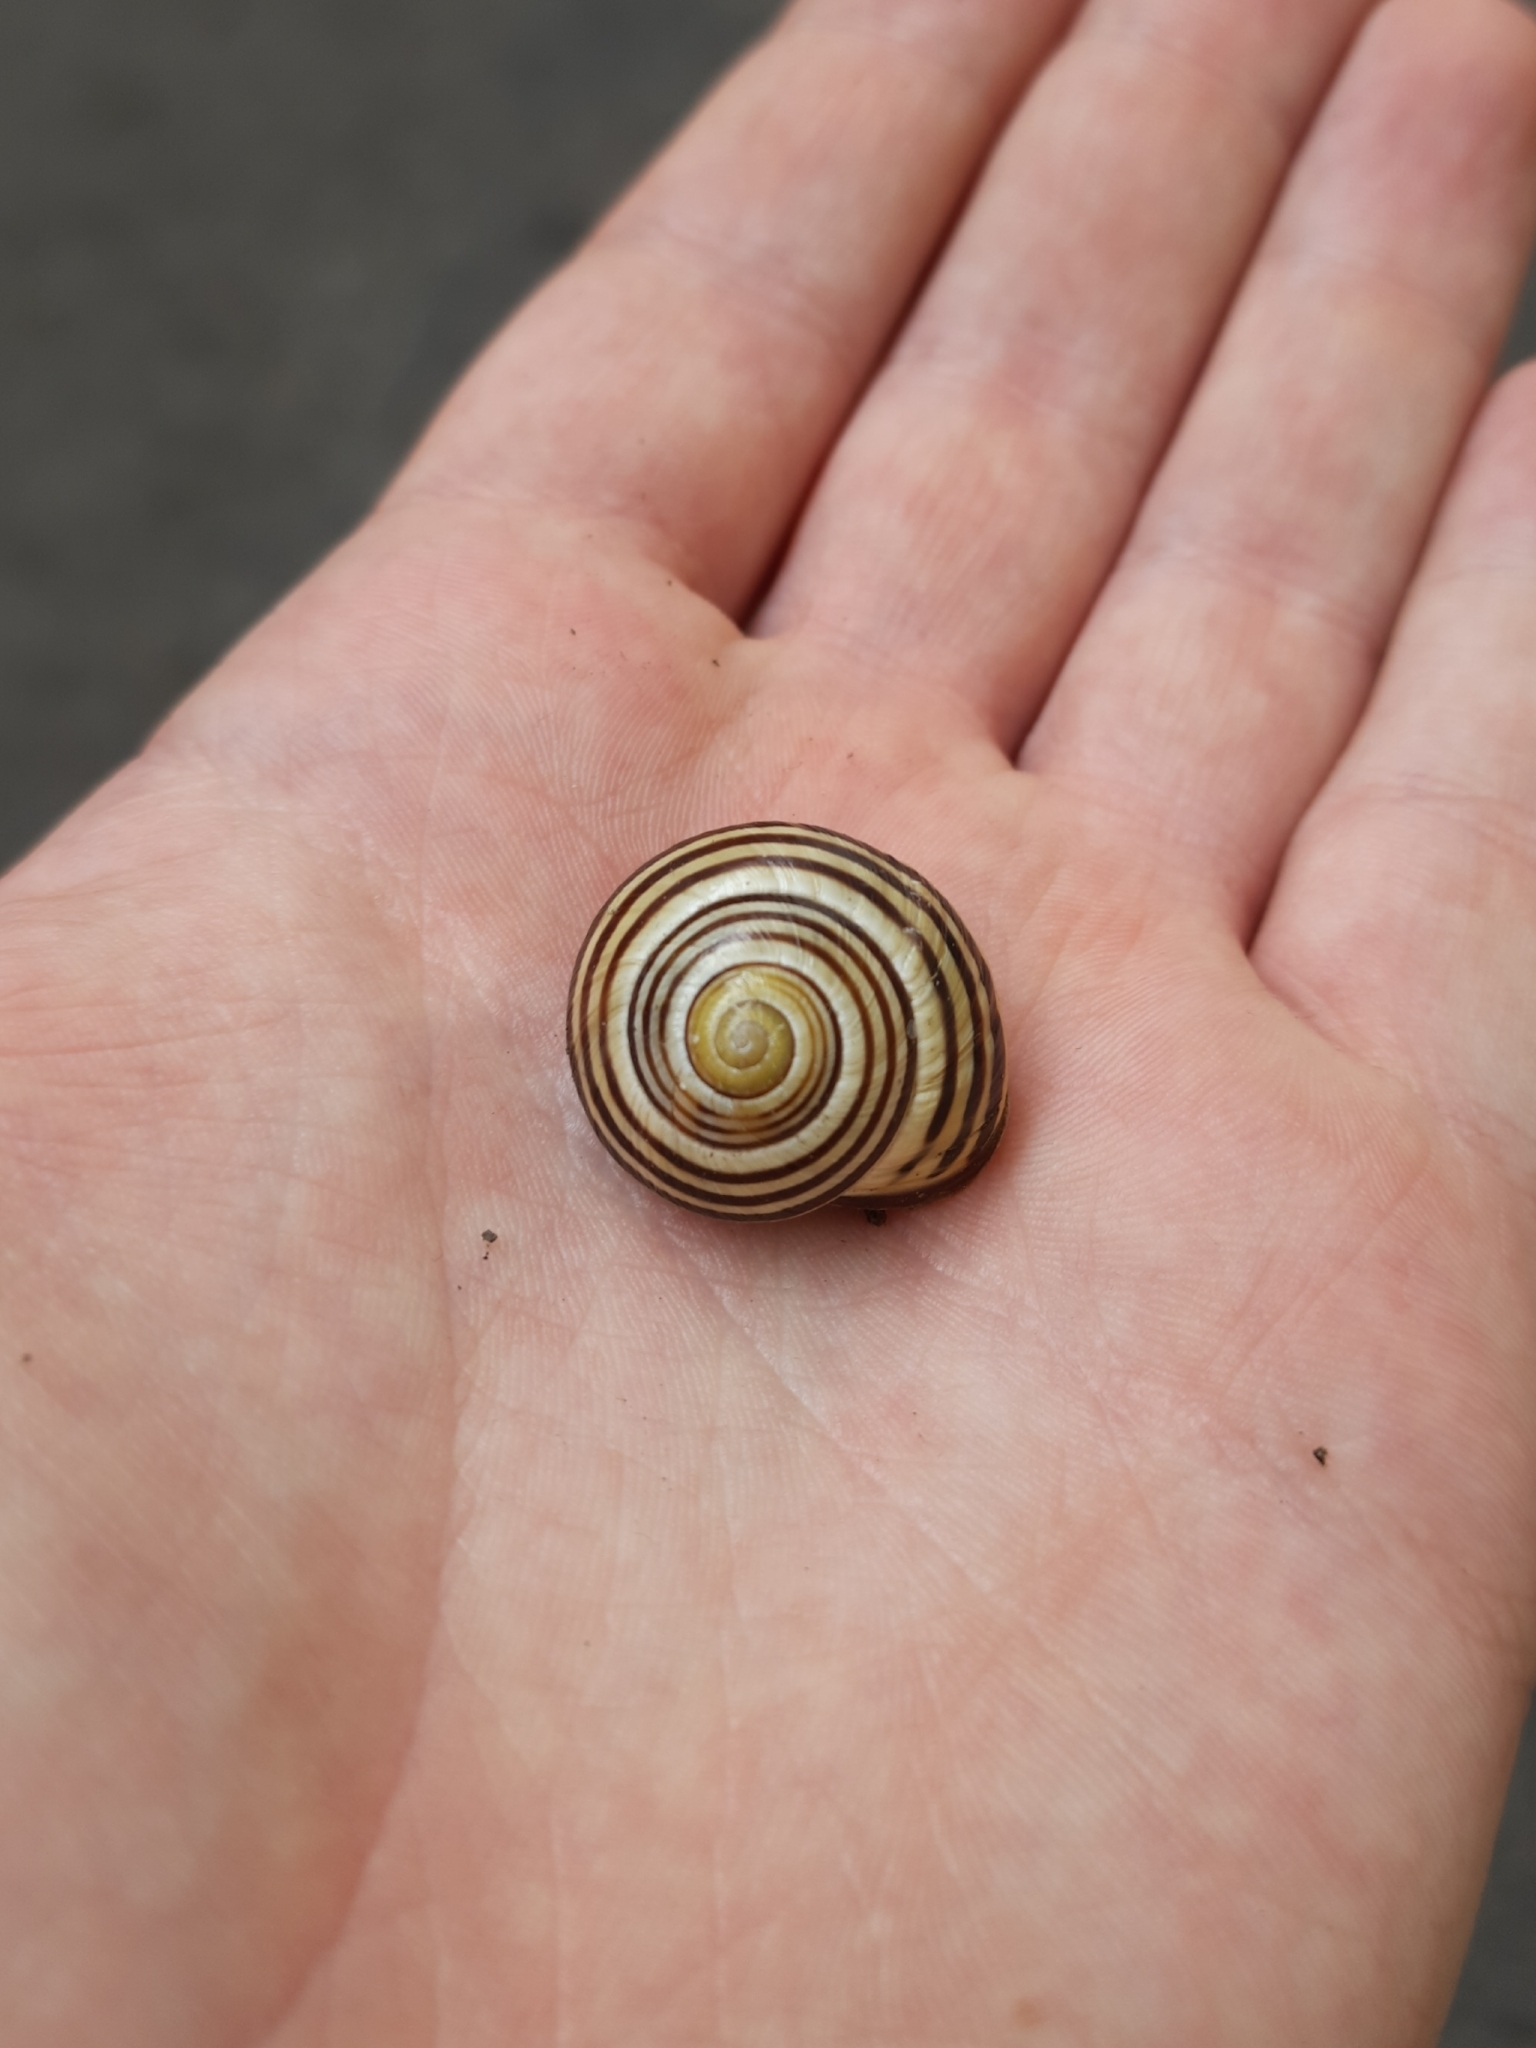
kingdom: Animalia
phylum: Mollusca
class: Gastropoda
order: Stylommatophora
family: Helicidae
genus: Cepaea
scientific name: Cepaea nemoralis
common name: Grovesnail
